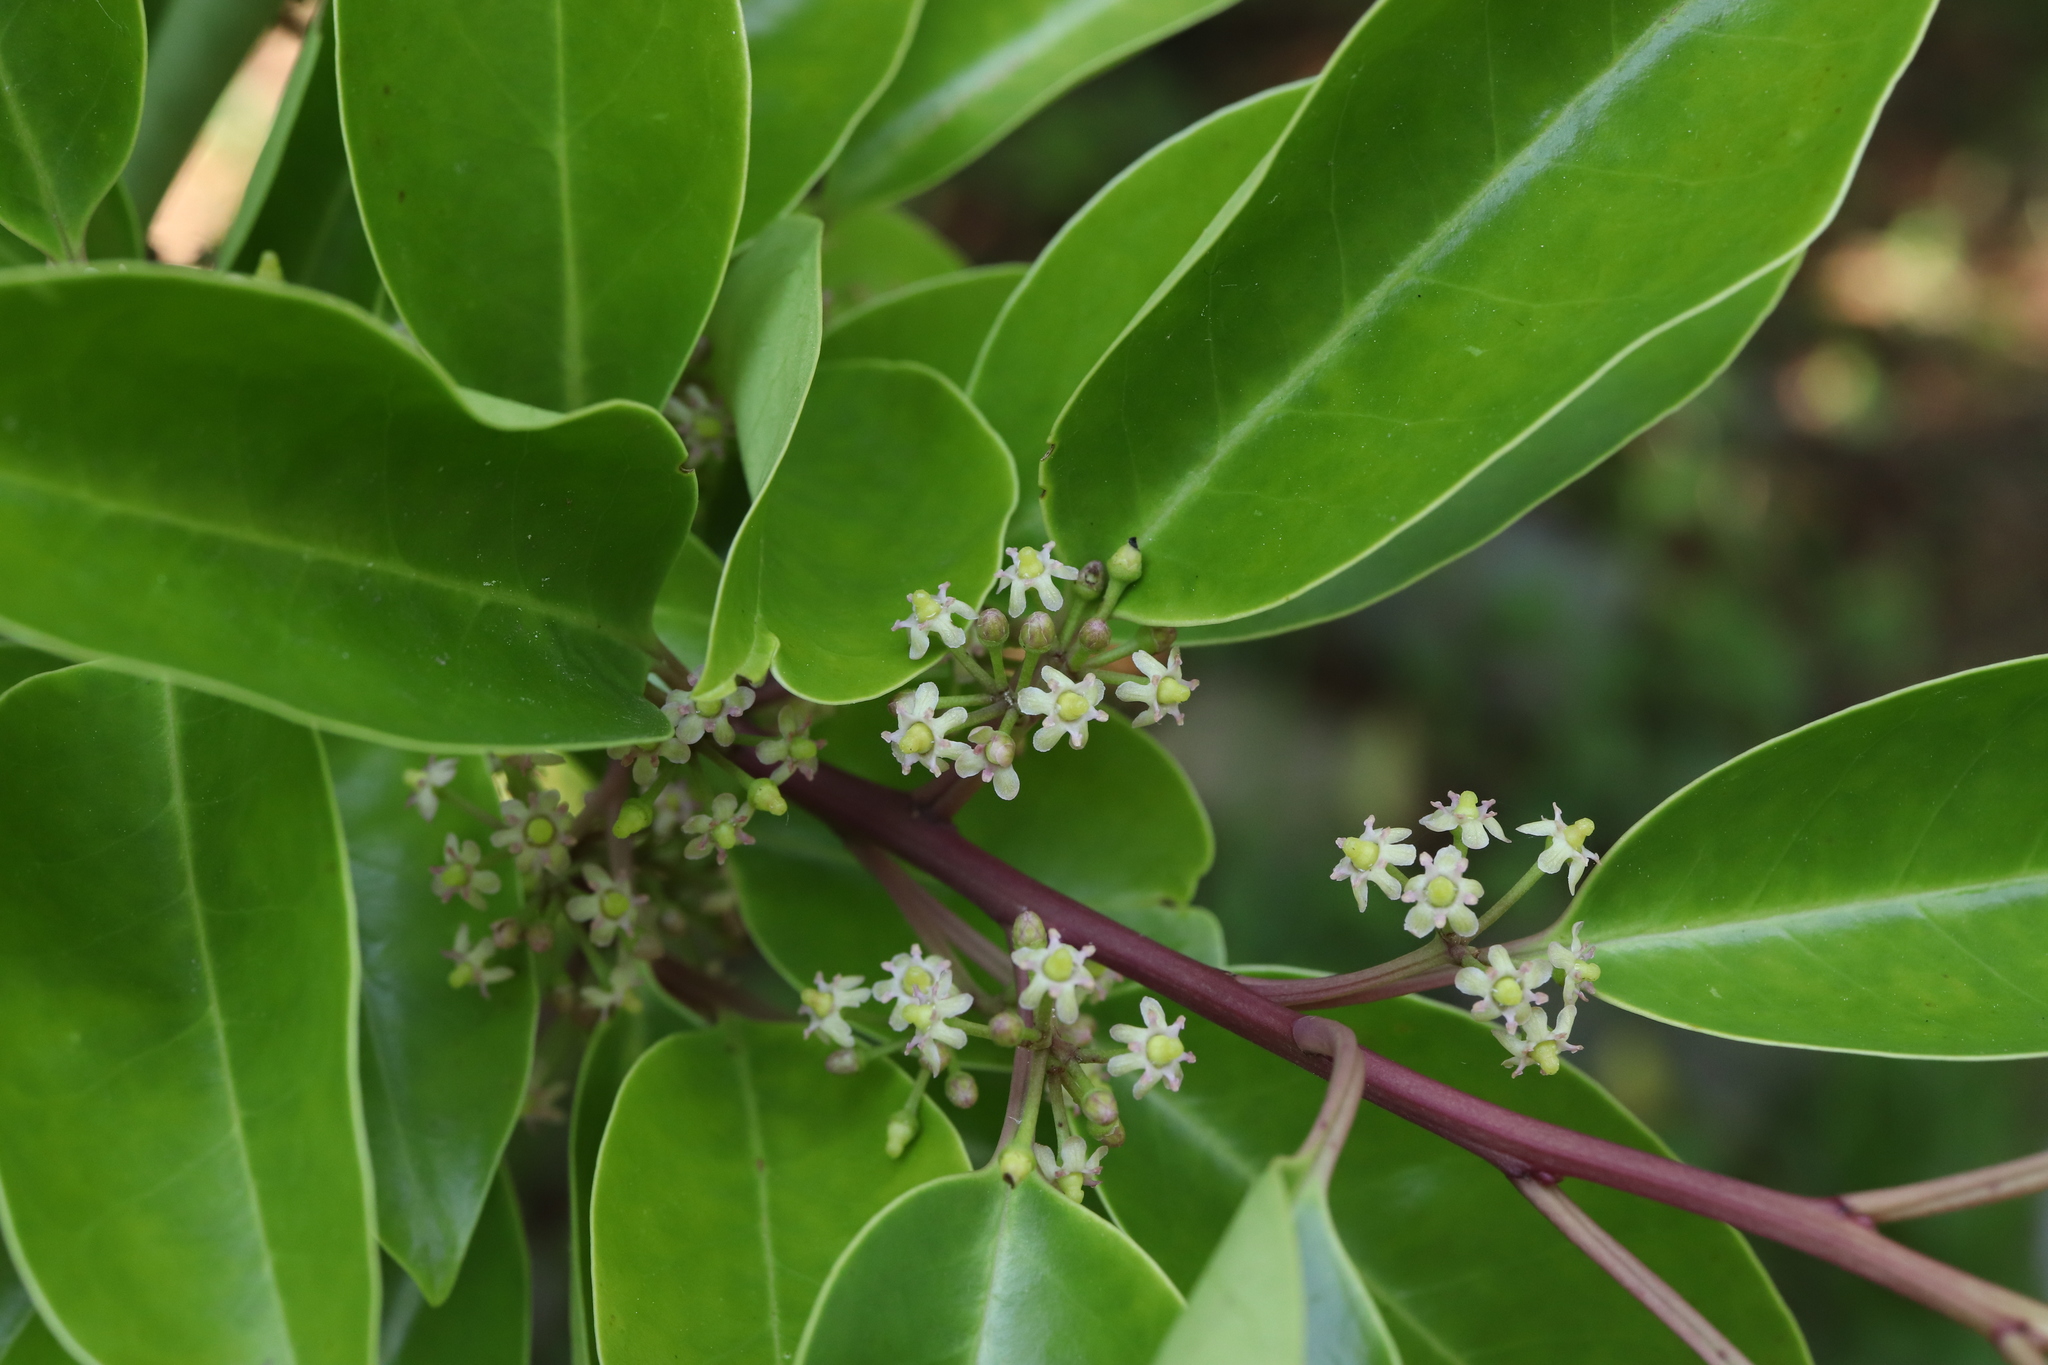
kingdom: Plantae
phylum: Tracheophyta
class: Magnoliopsida
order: Aquifoliales
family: Aquifoliaceae
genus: Ilex
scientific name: Ilex rotunda
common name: Kurogane holly
